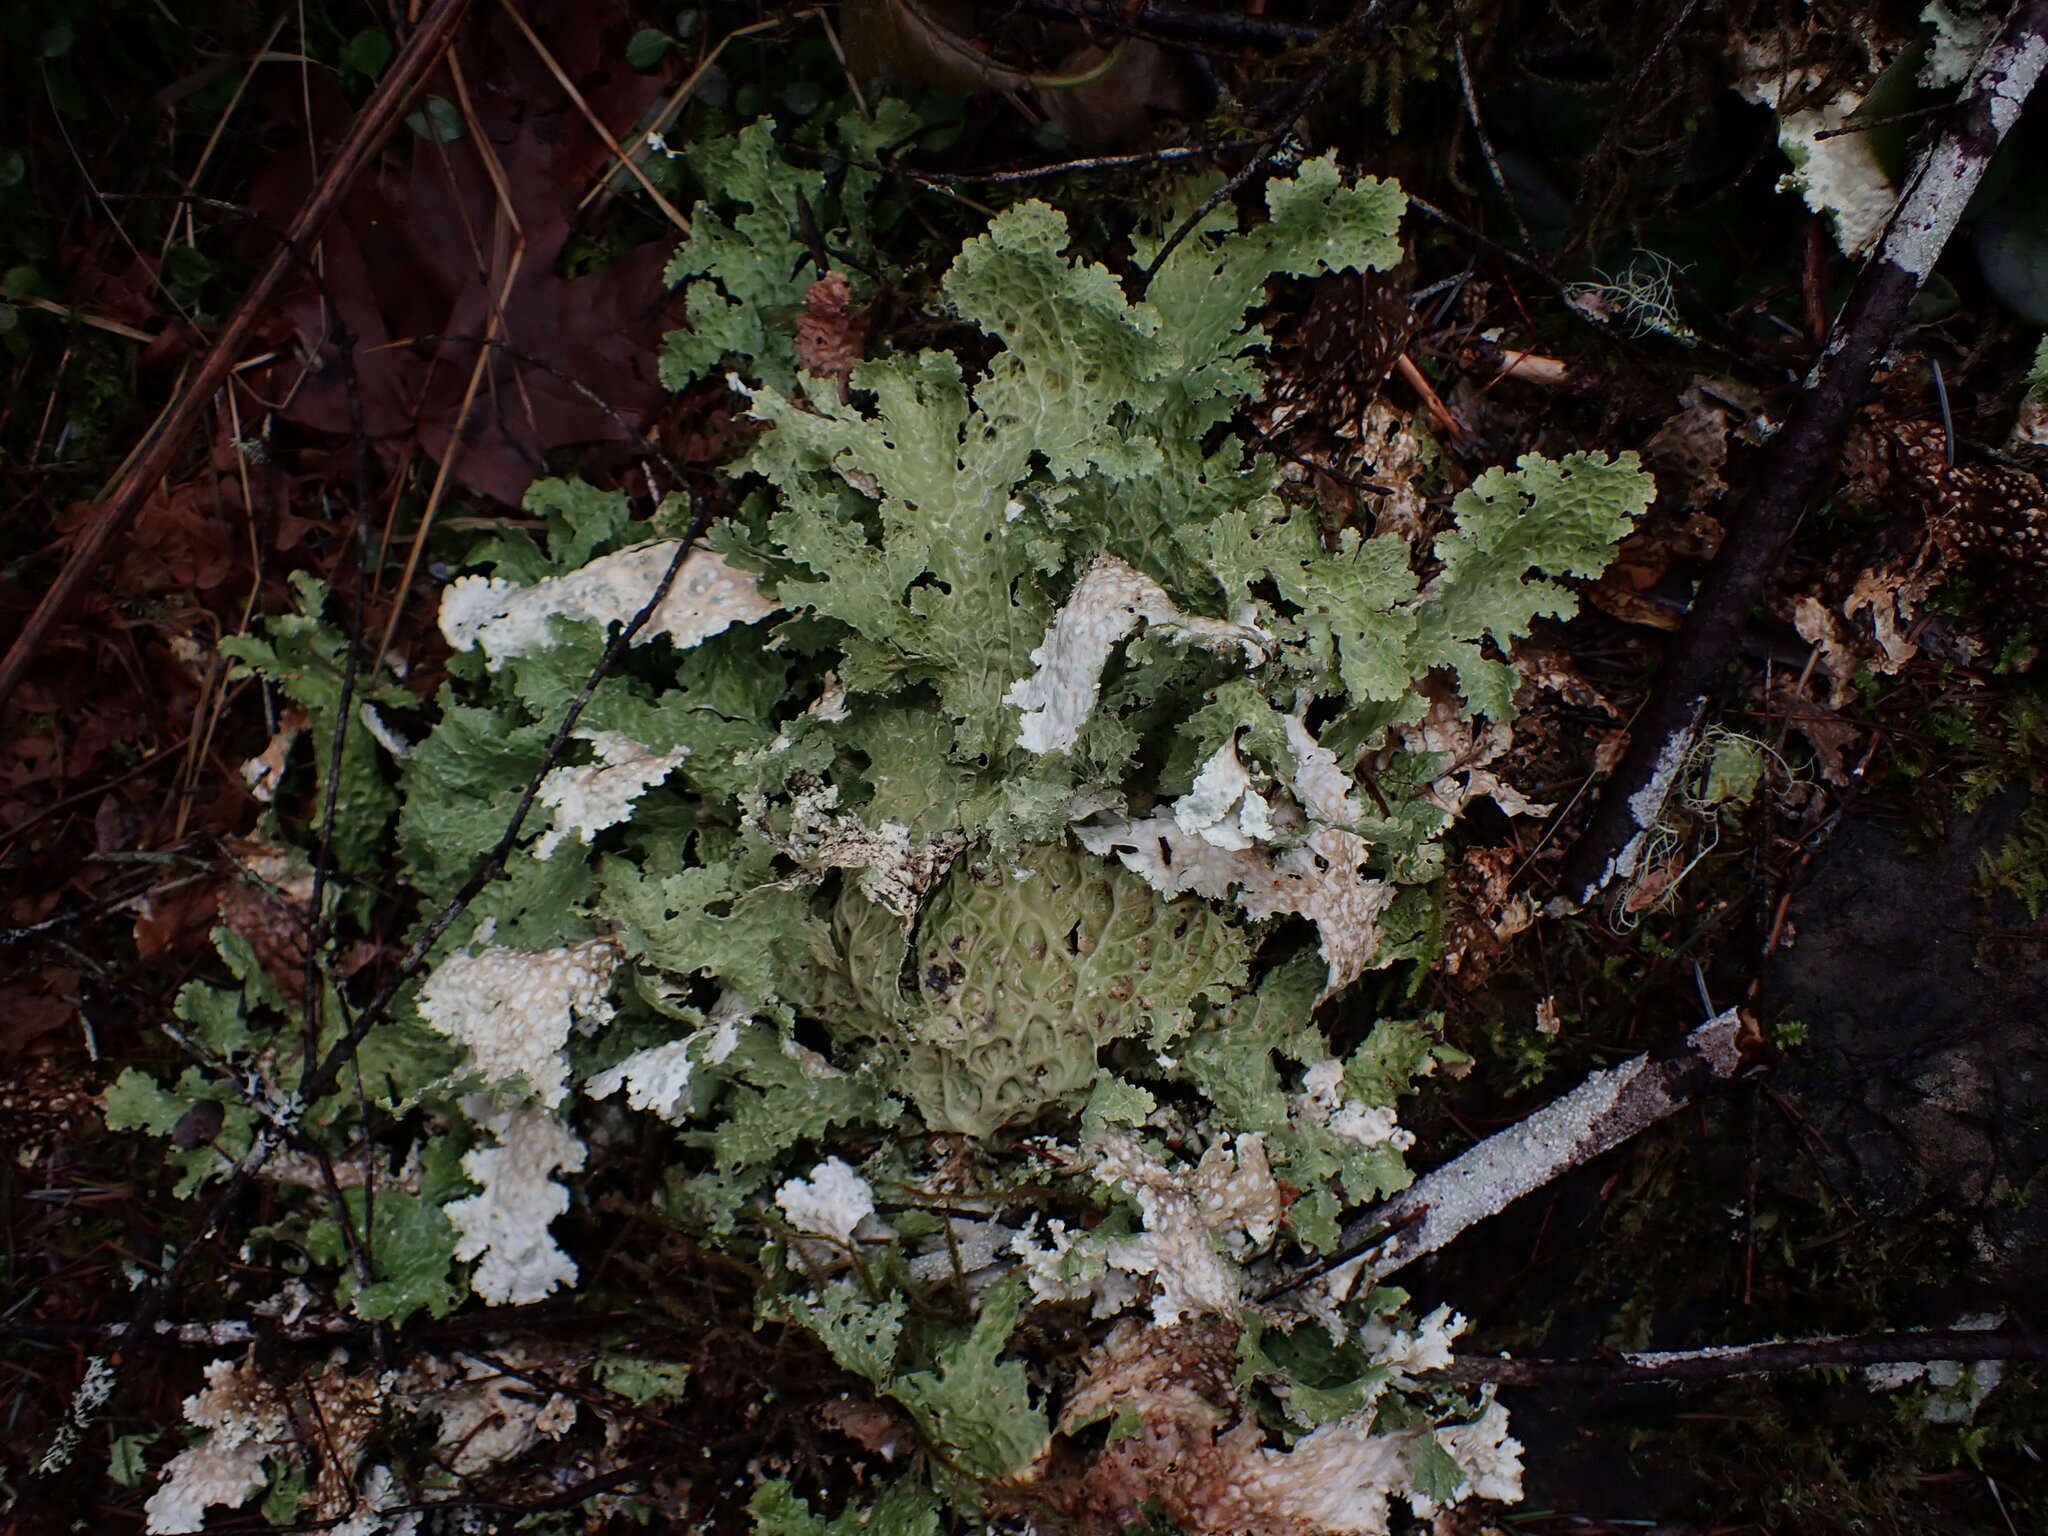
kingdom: Fungi
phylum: Ascomycota
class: Lecanoromycetes
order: Peltigerales
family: Lobariaceae
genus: Lobaria
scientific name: Lobaria oregana
